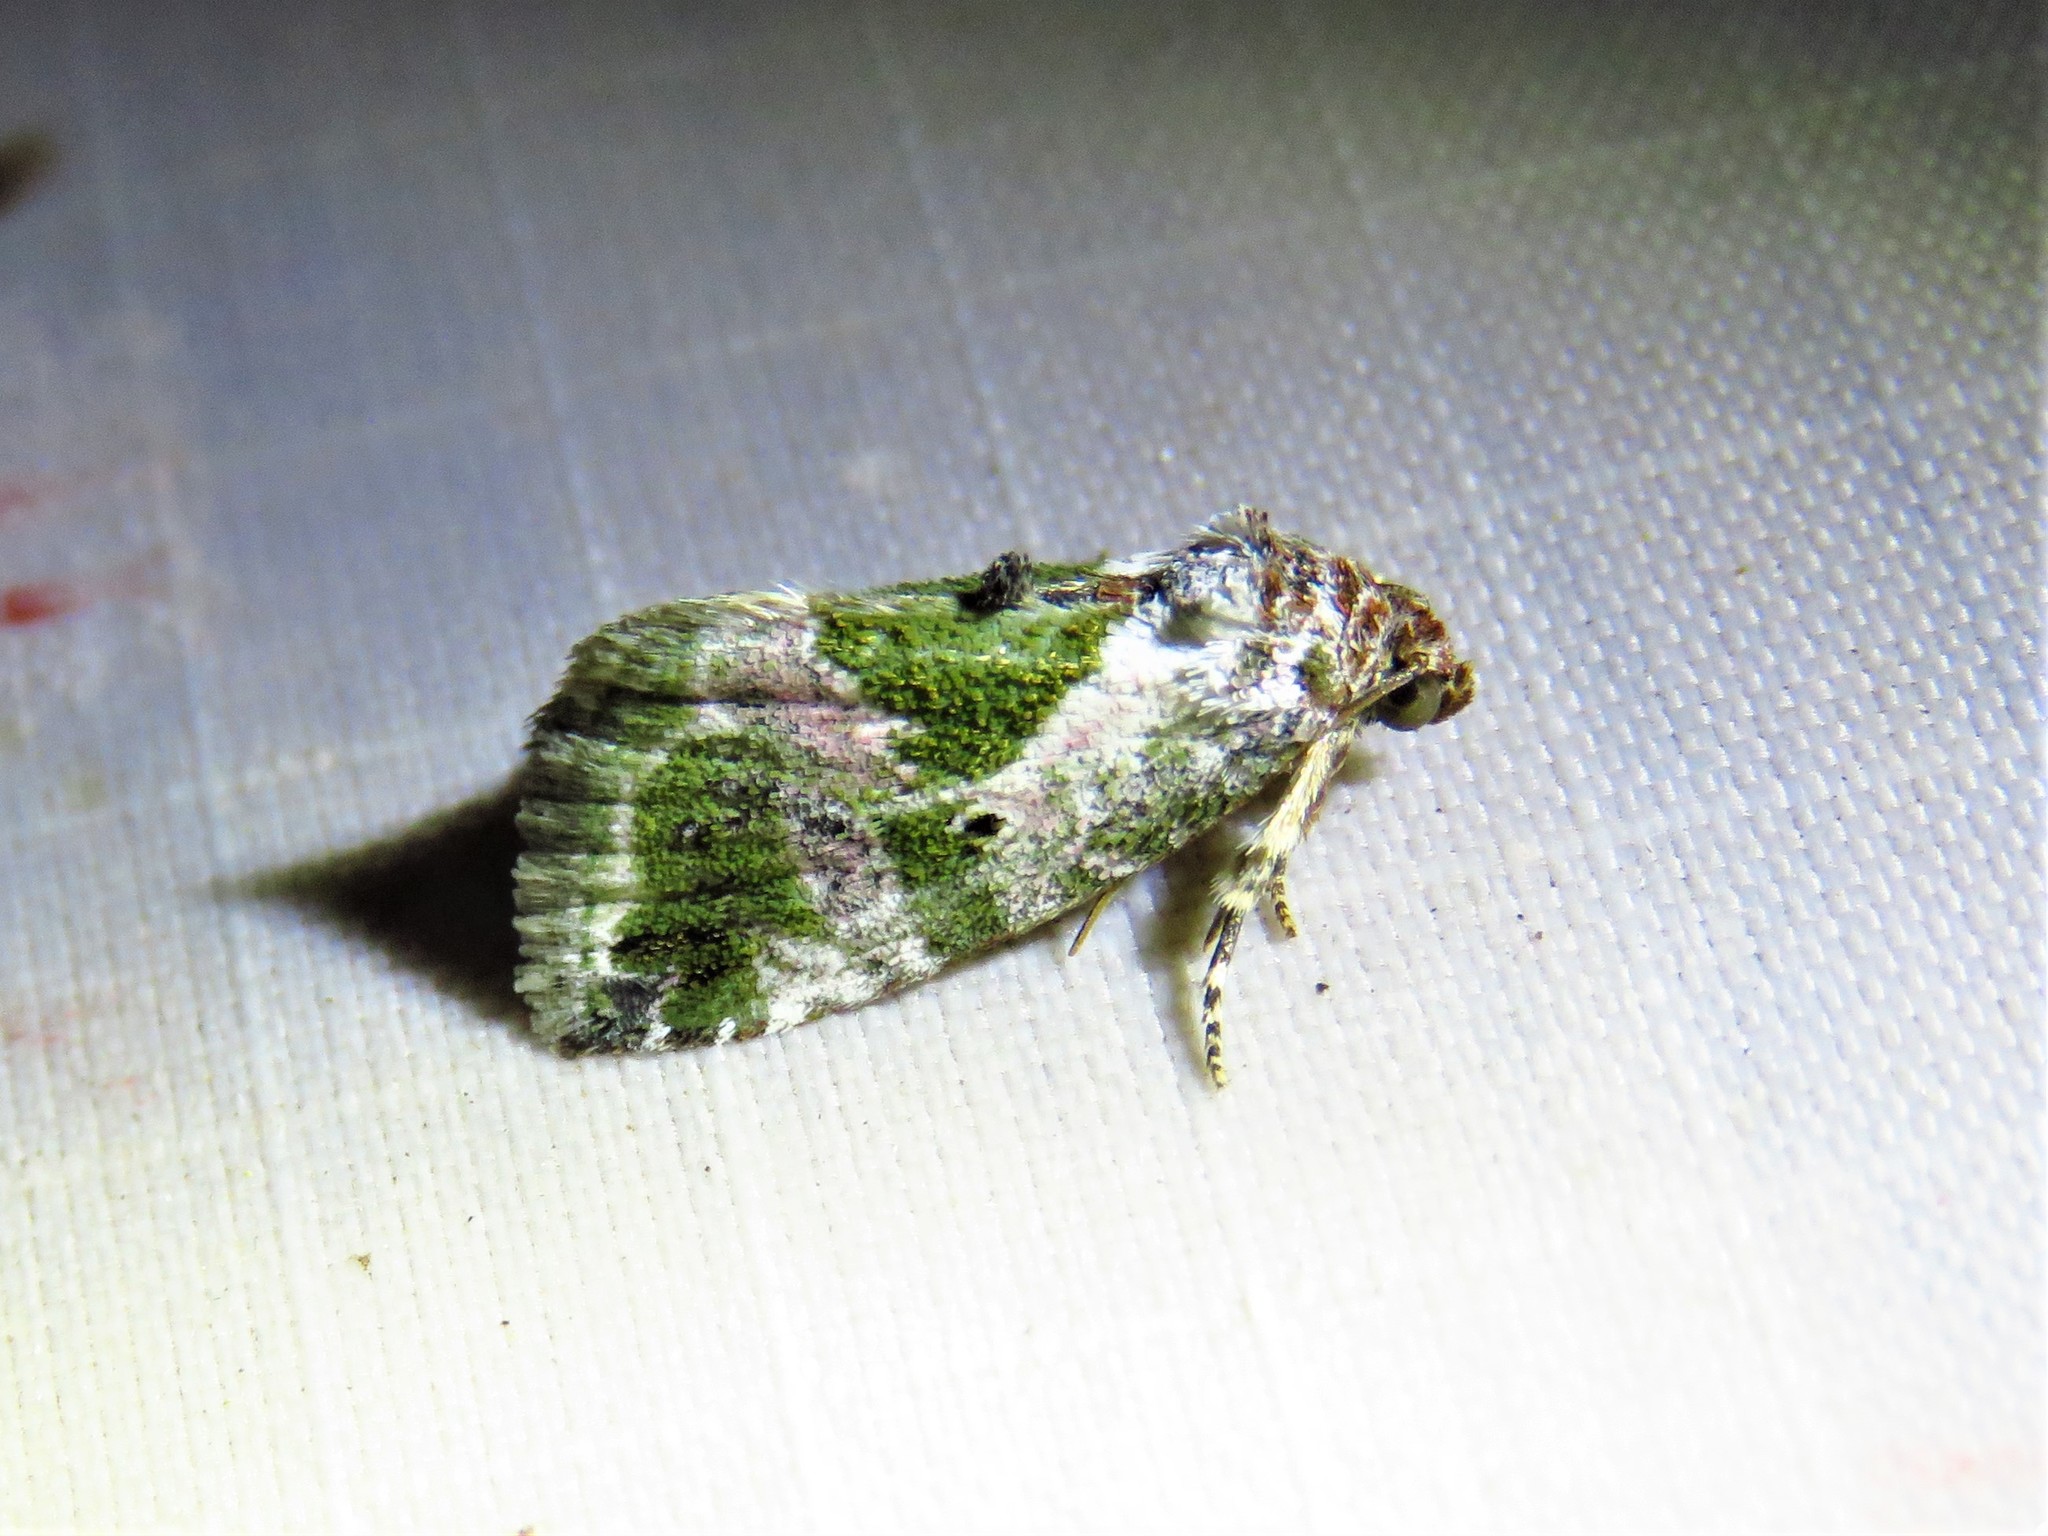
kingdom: Animalia
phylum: Arthropoda
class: Insecta
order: Lepidoptera
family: Noctuidae
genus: Maliattha
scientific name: Maliattha synochitis
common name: Black-dotted glyph
